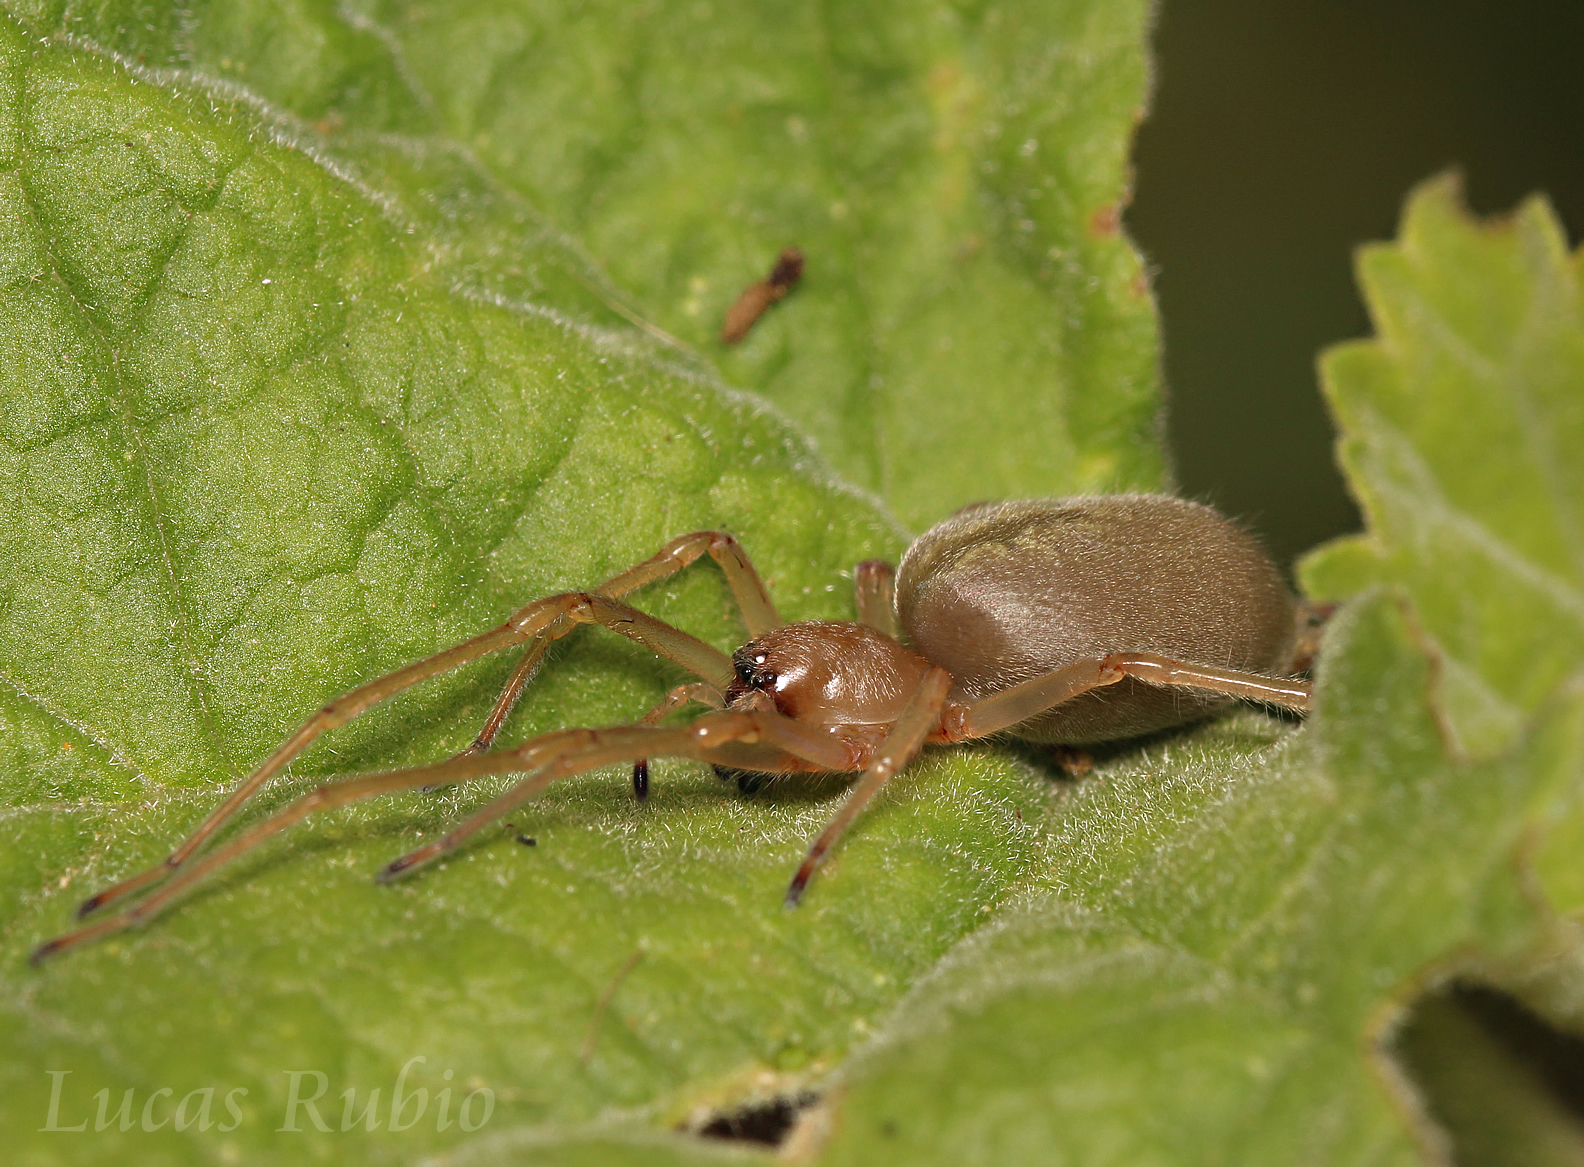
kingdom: Animalia
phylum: Arthropoda
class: Arachnida
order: Araneae
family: Cheiracanthiidae
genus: Cheiracanthium
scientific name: Cheiracanthium
